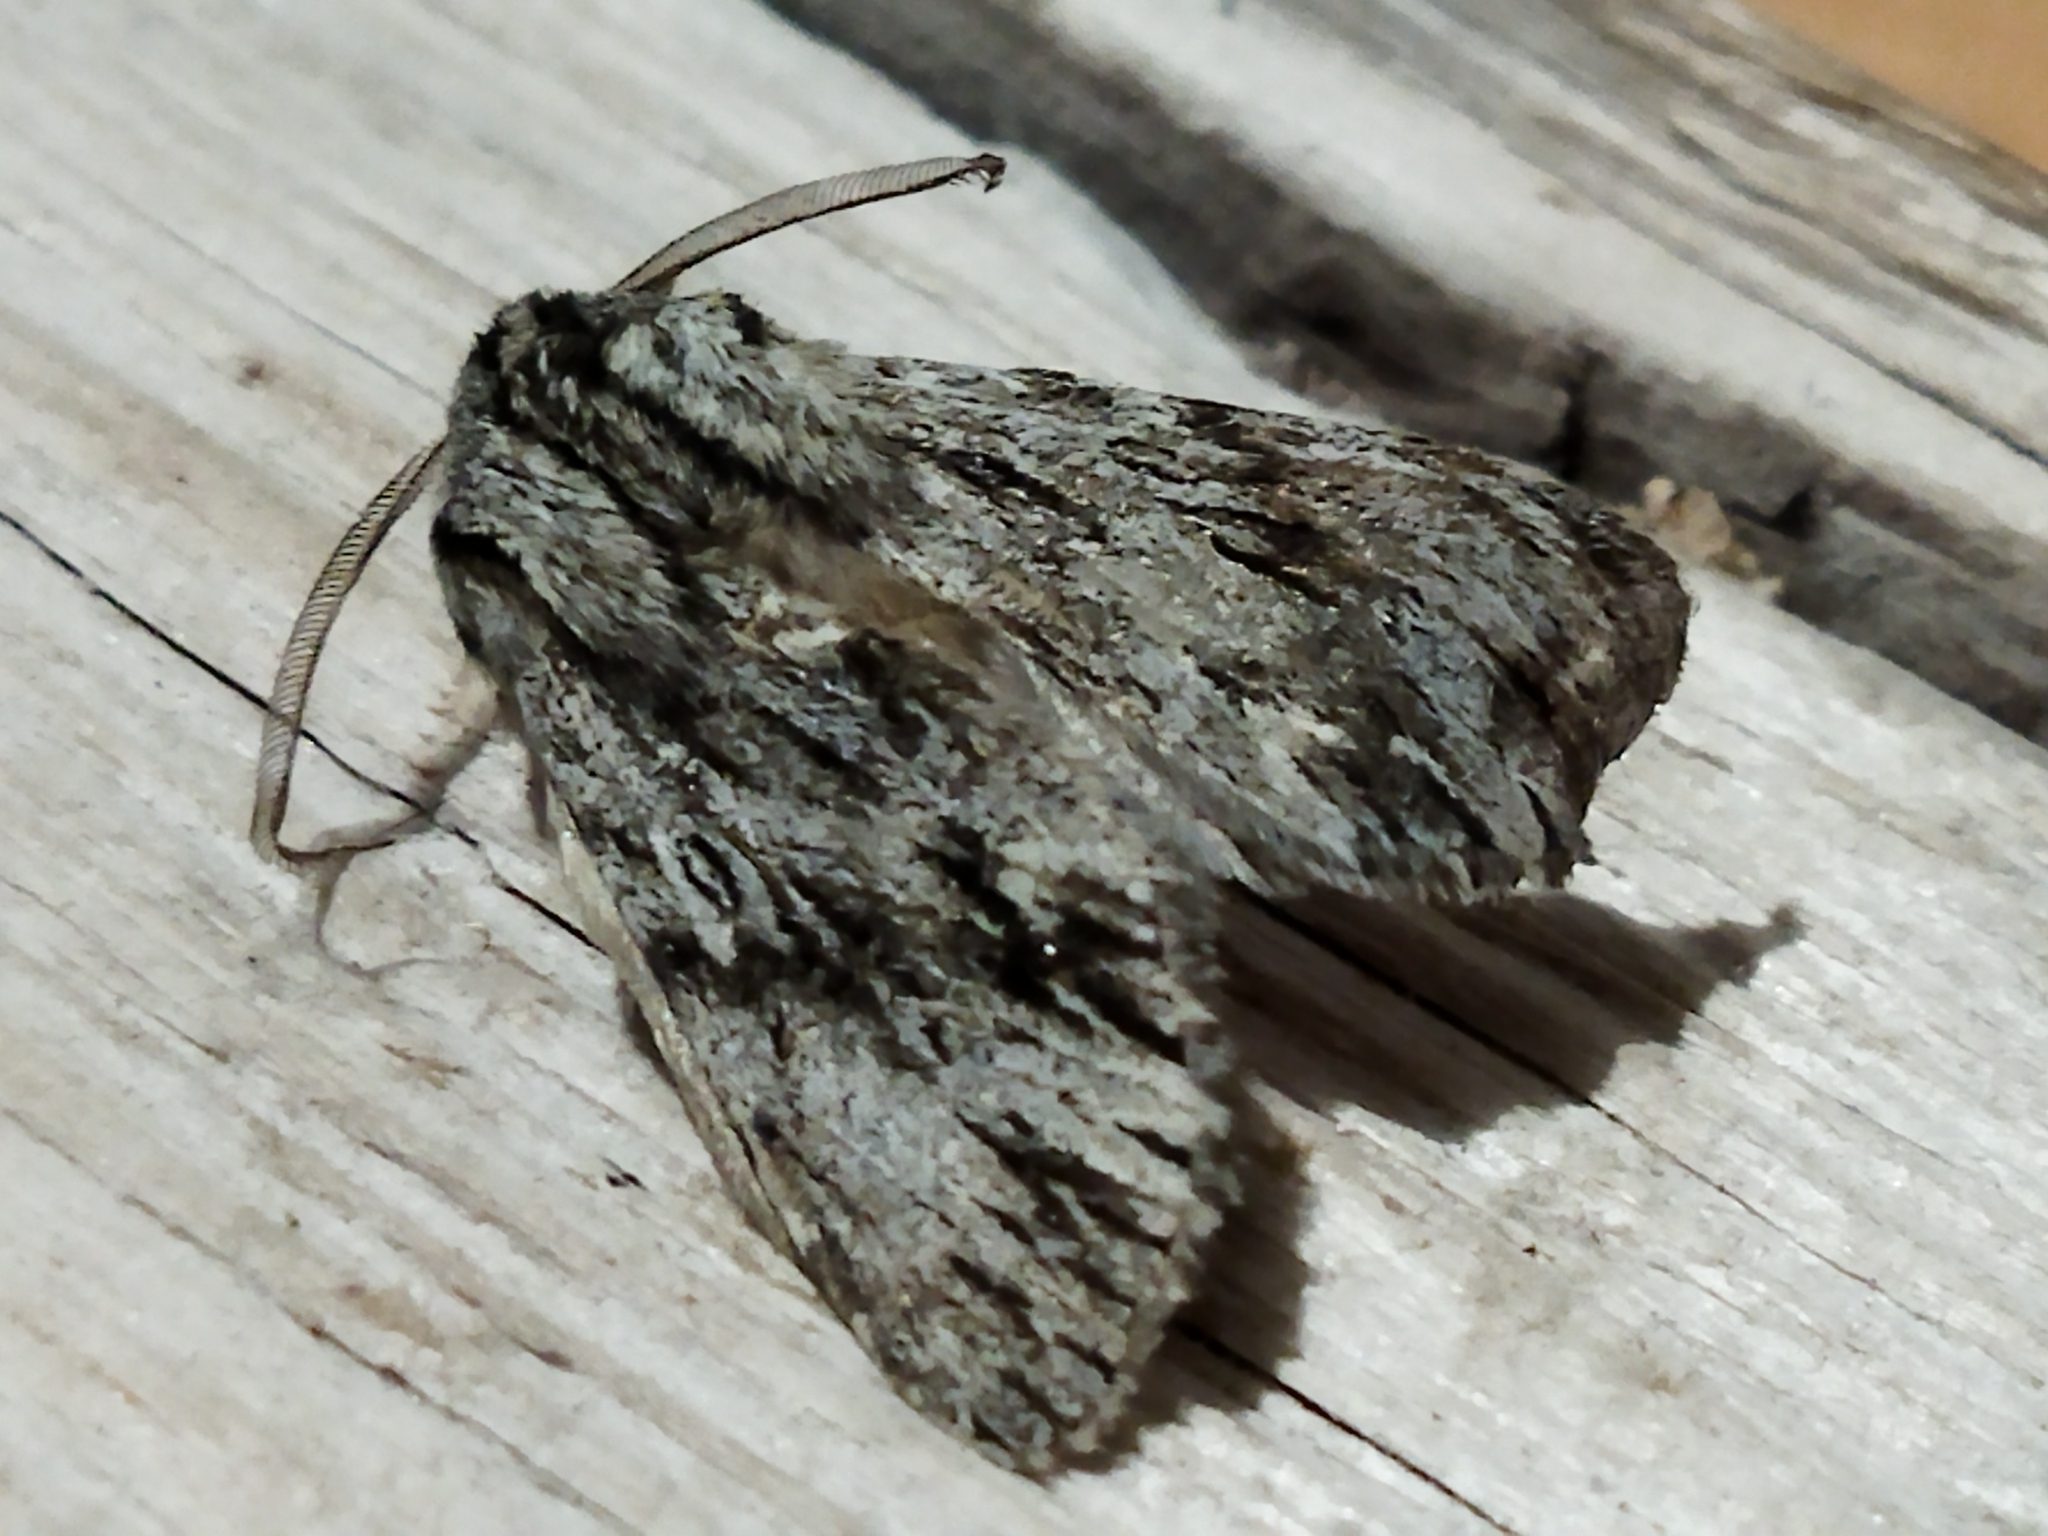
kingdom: Animalia
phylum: Arthropoda
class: Insecta
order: Lepidoptera
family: Noctuidae
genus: Asteroscopus
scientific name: Asteroscopus sphinx
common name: The sprawler
